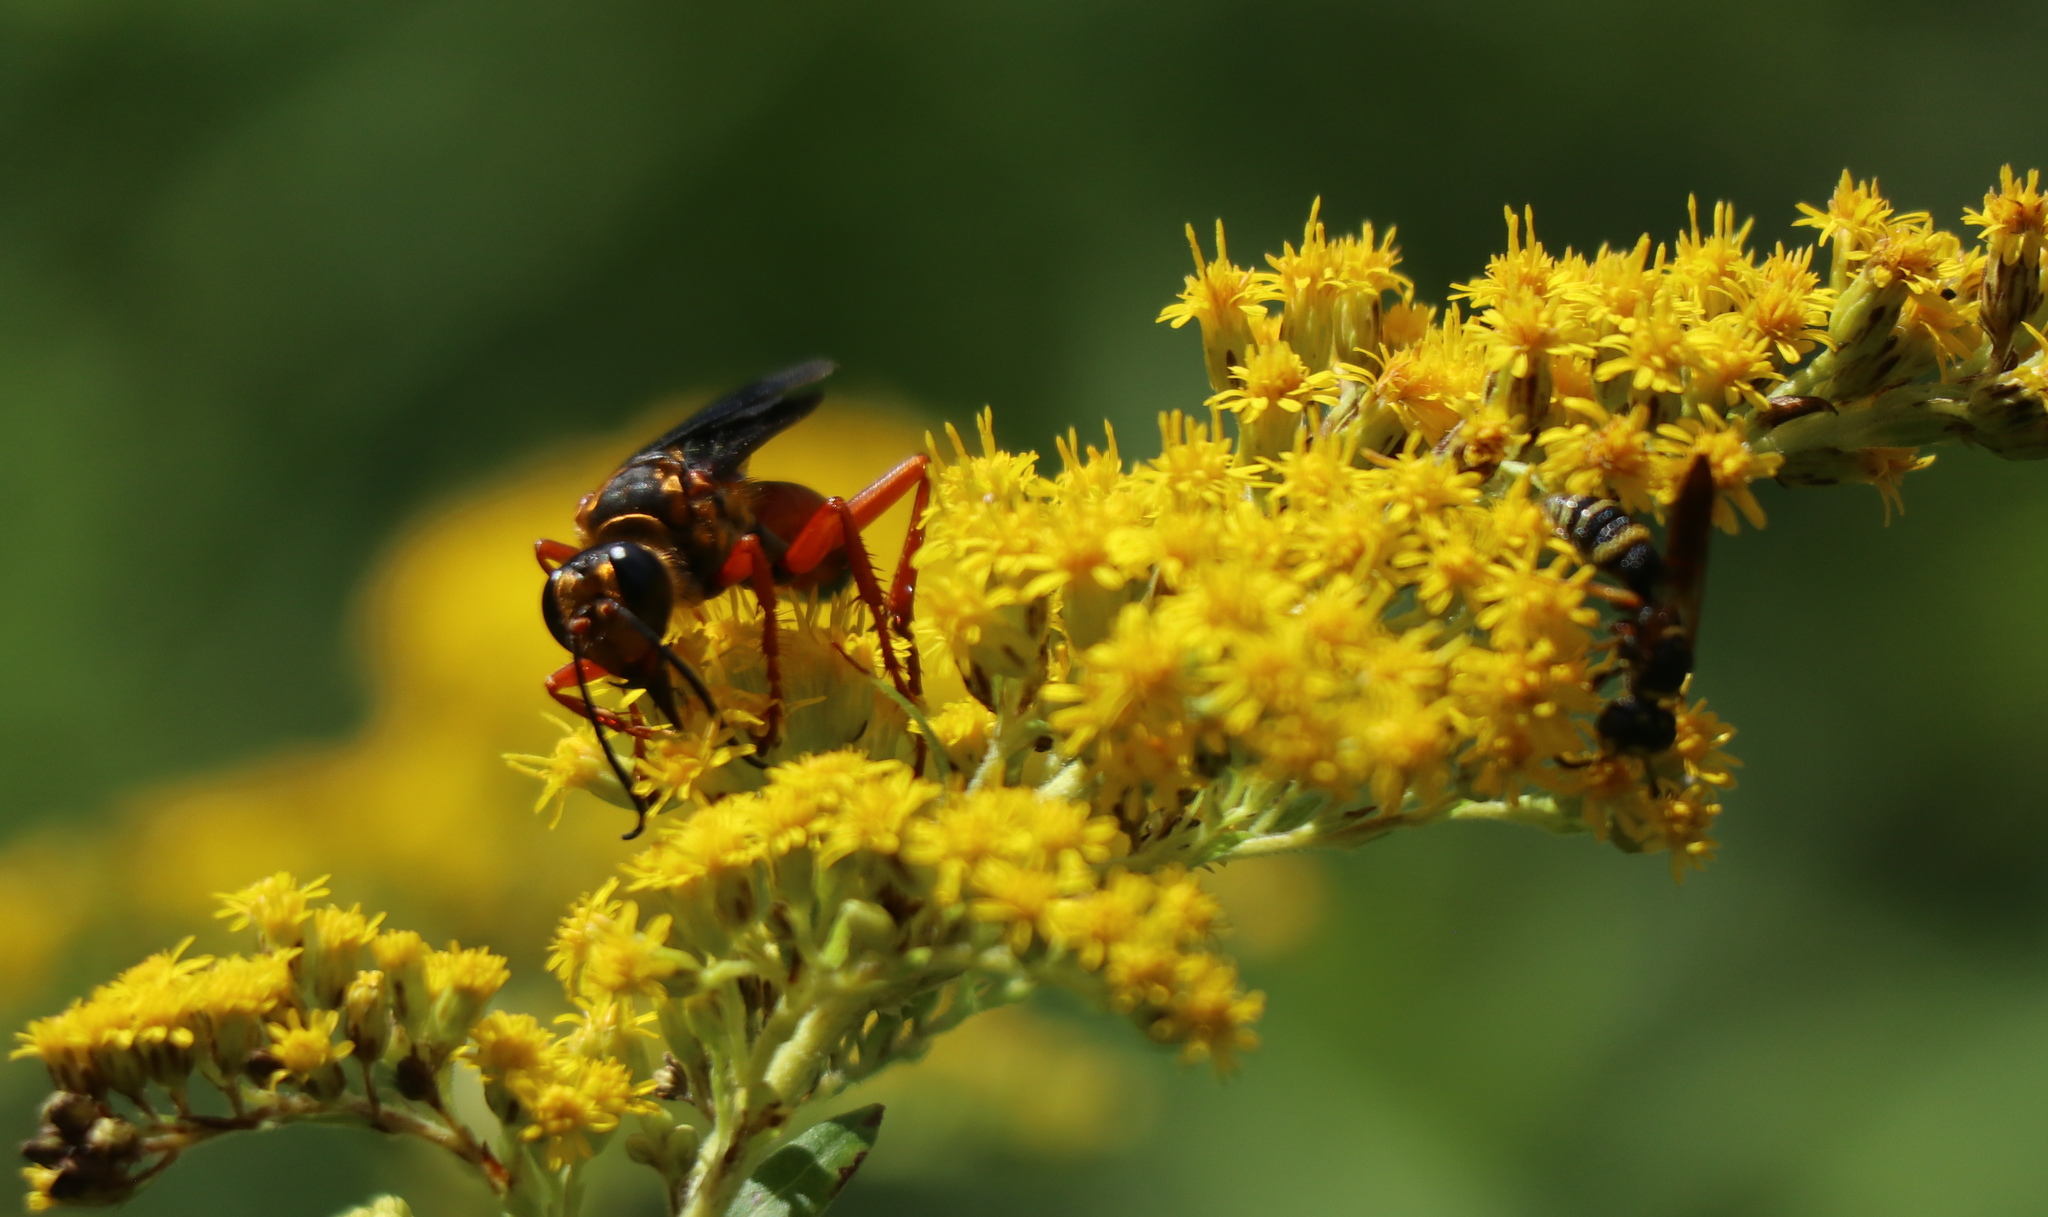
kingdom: Animalia
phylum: Arthropoda
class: Insecta
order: Hymenoptera
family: Sphecidae
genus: Sphex
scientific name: Sphex ichneumoneus
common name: Great golden digger wasp
